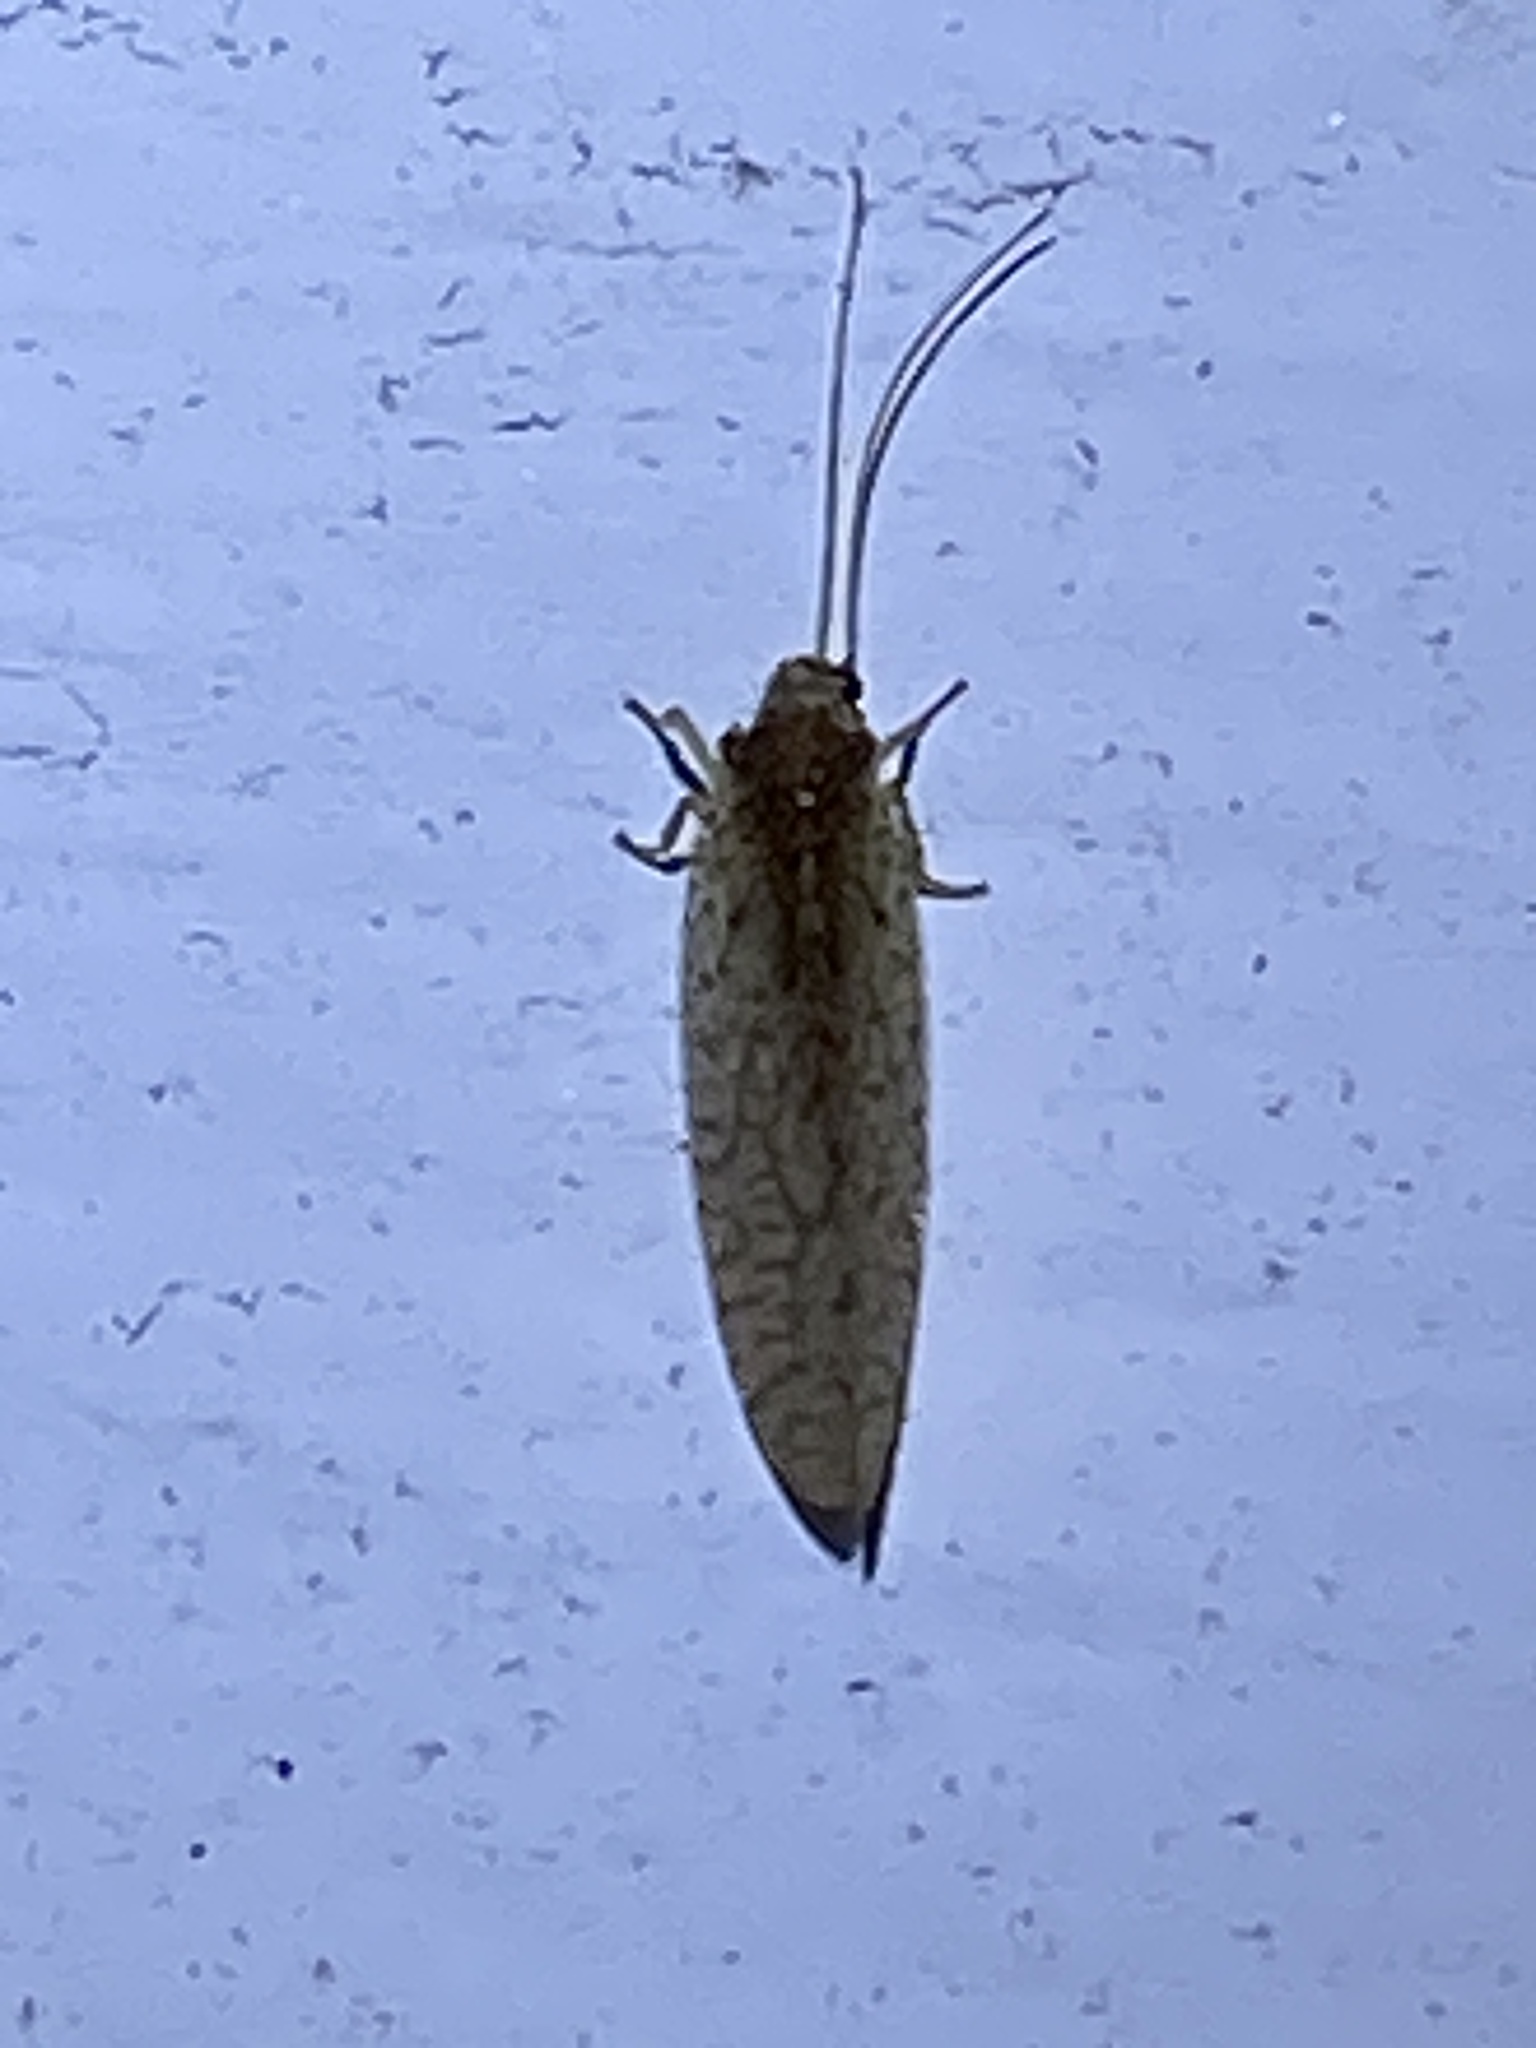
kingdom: Animalia
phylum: Arthropoda
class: Insecta
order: Neuroptera
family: Hemerobiidae
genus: Micromus
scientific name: Micromus posticus
